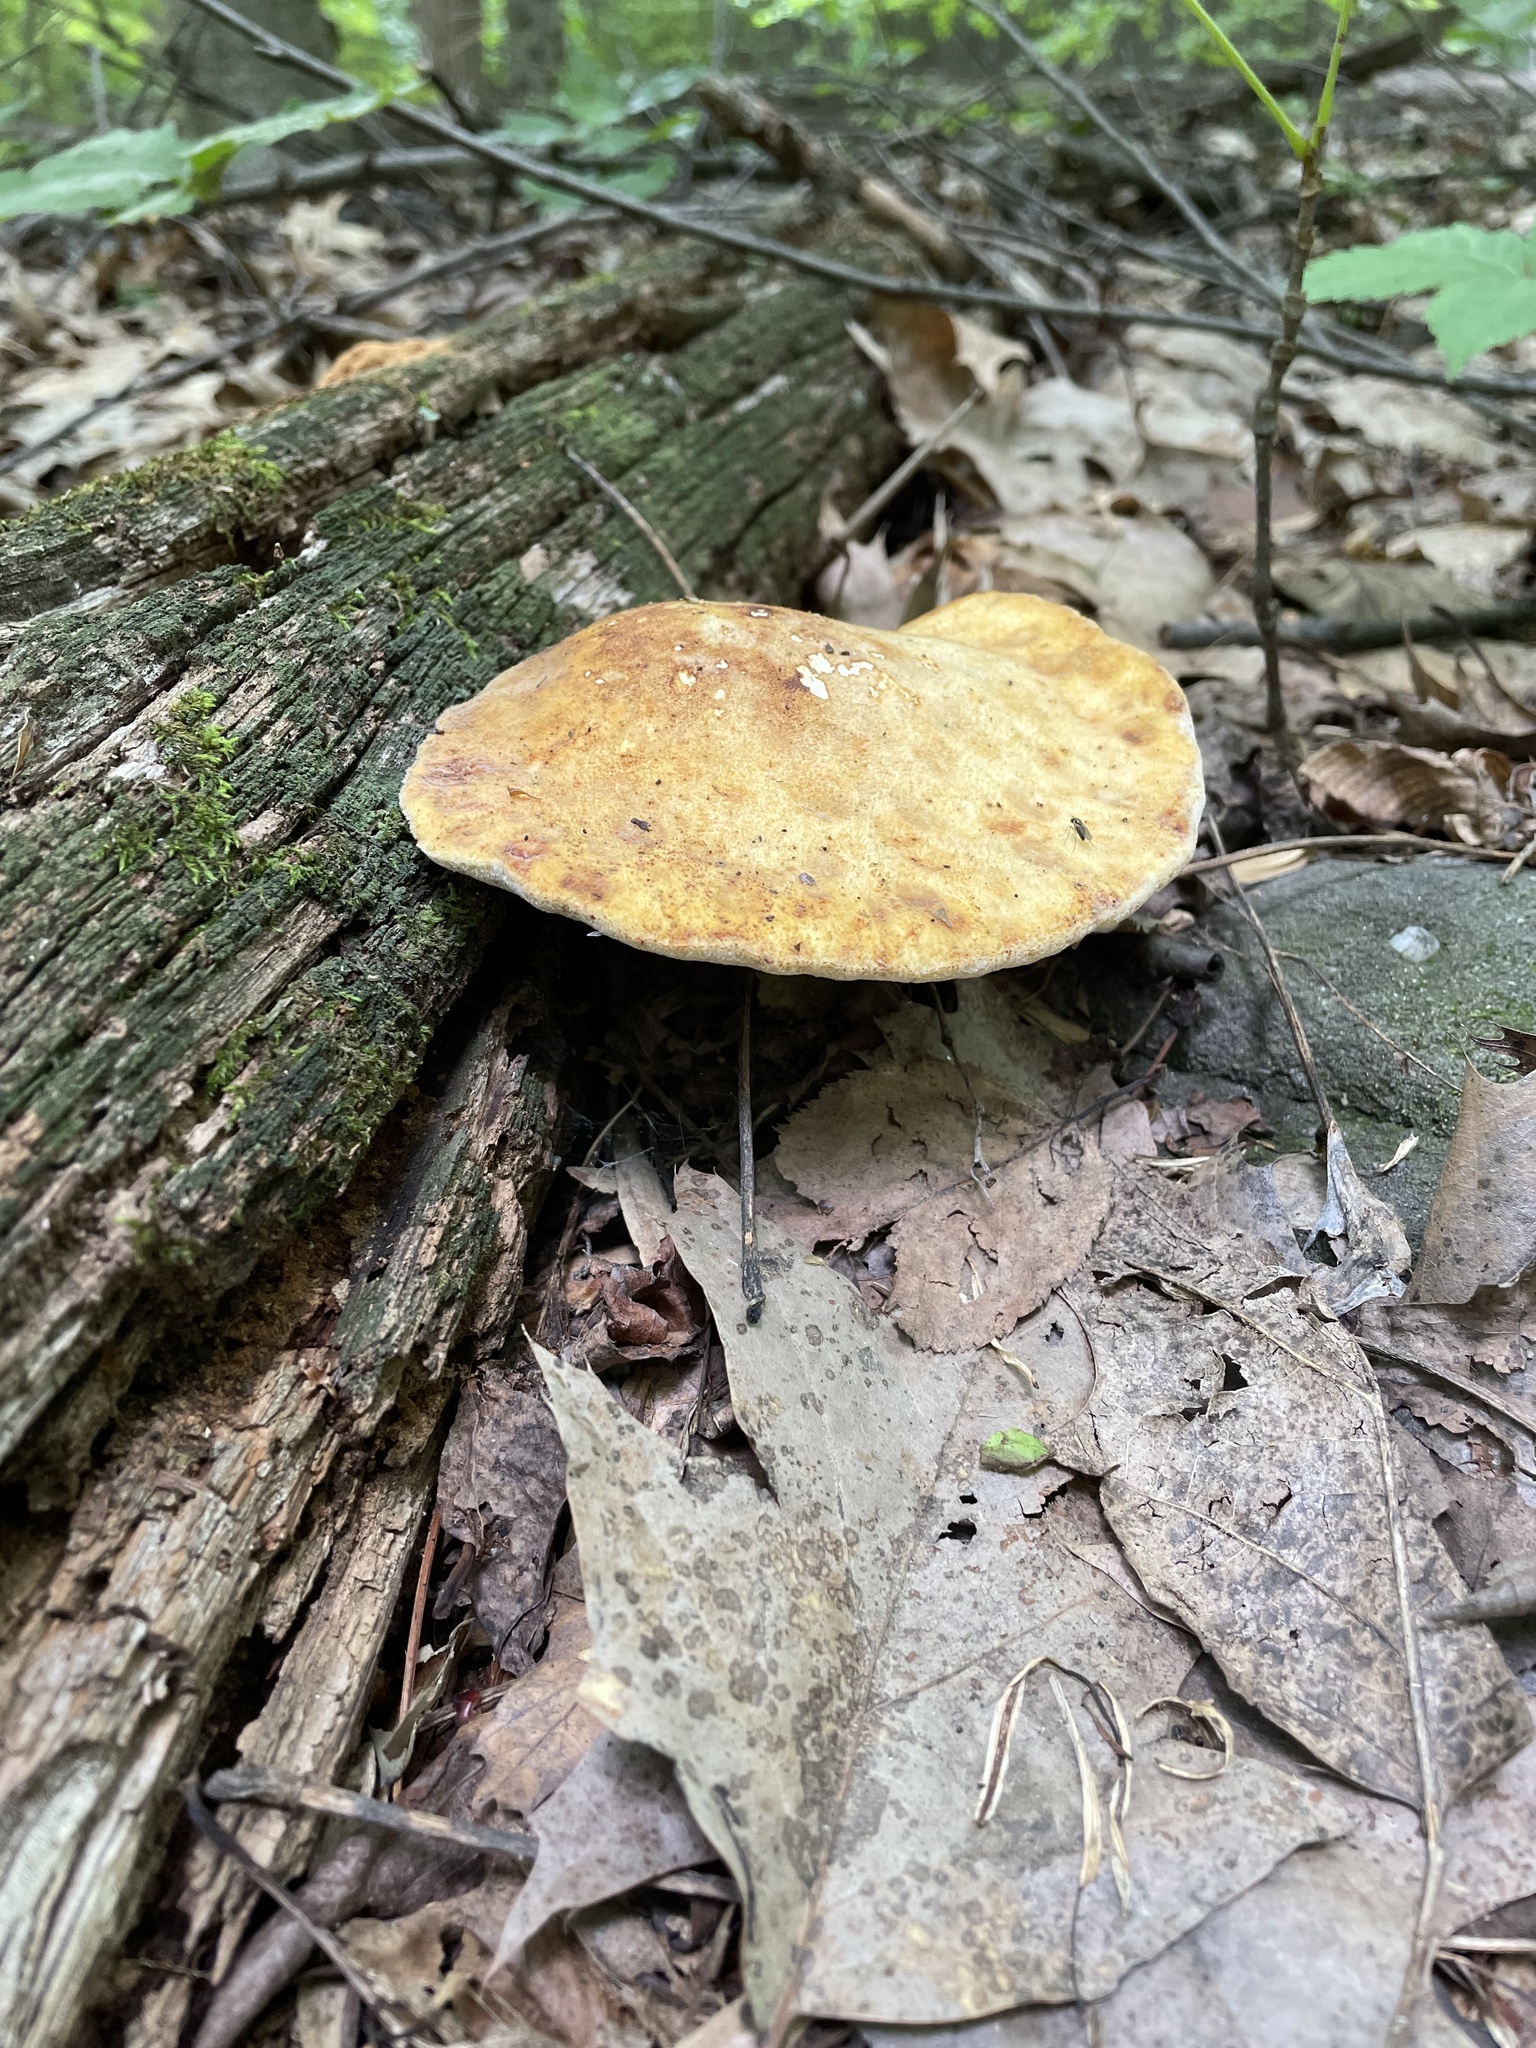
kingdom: Fungi
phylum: Basidiomycota
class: Agaricomycetes
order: Polyporales
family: Fomitopsidaceae
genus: Fomitopsis
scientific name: Fomitopsis
